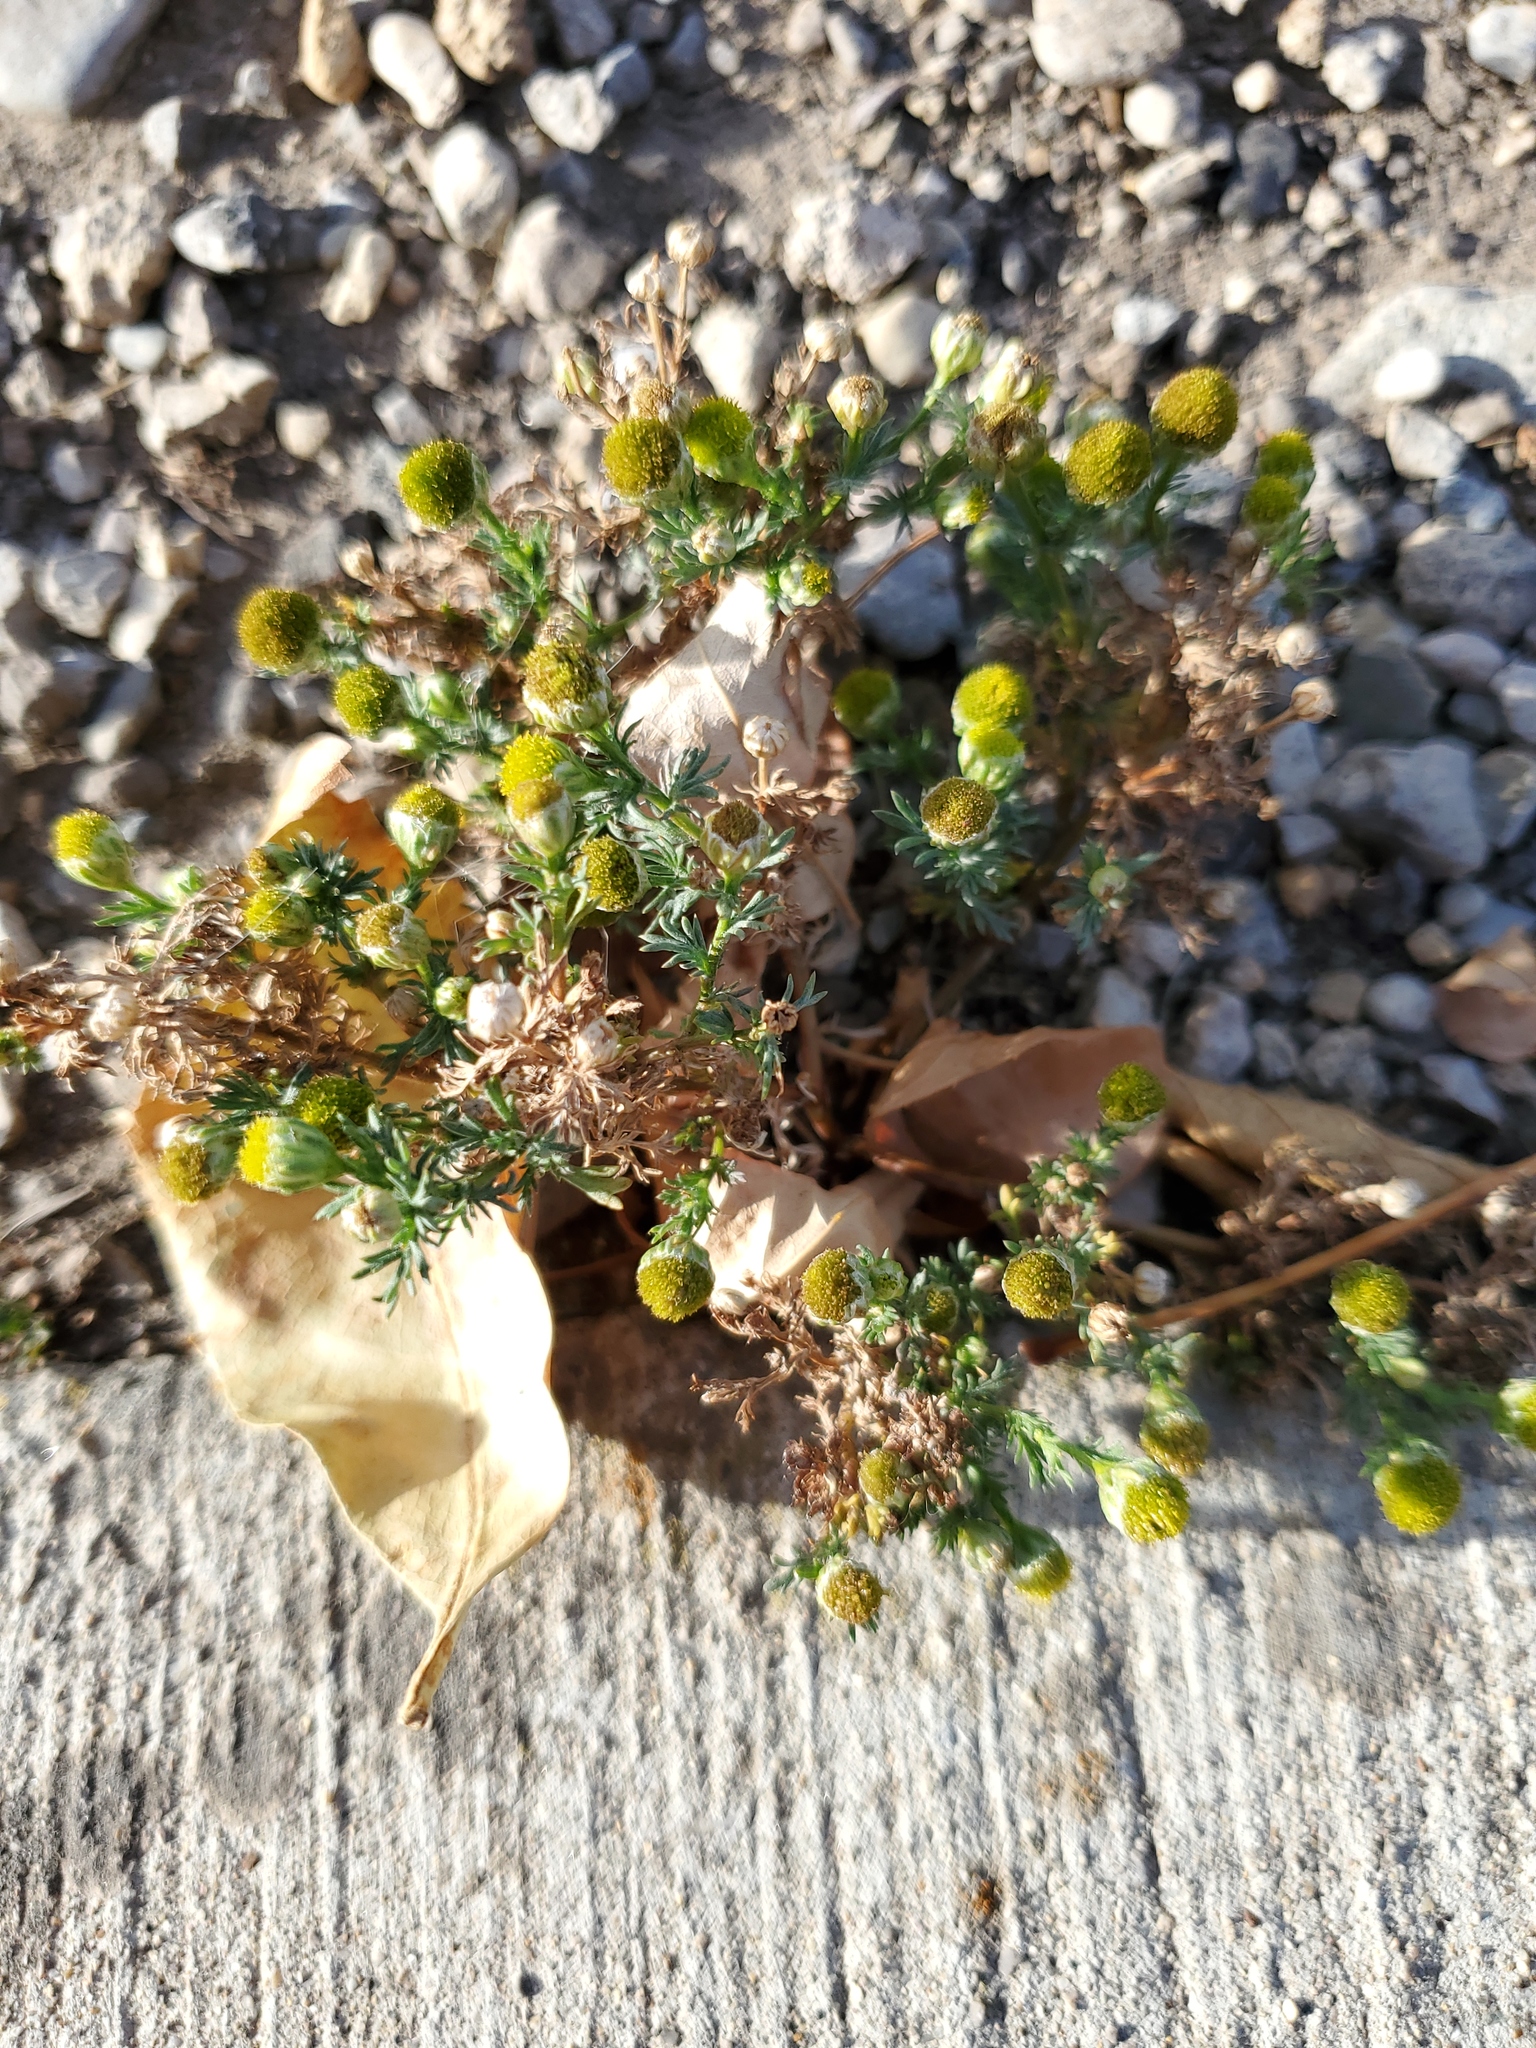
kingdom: Plantae
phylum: Tracheophyta
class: Magnoliopsida
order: Asterales
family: Asteraceae
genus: Matricaria
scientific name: Matricaria discoidea
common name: Disc mayweed
